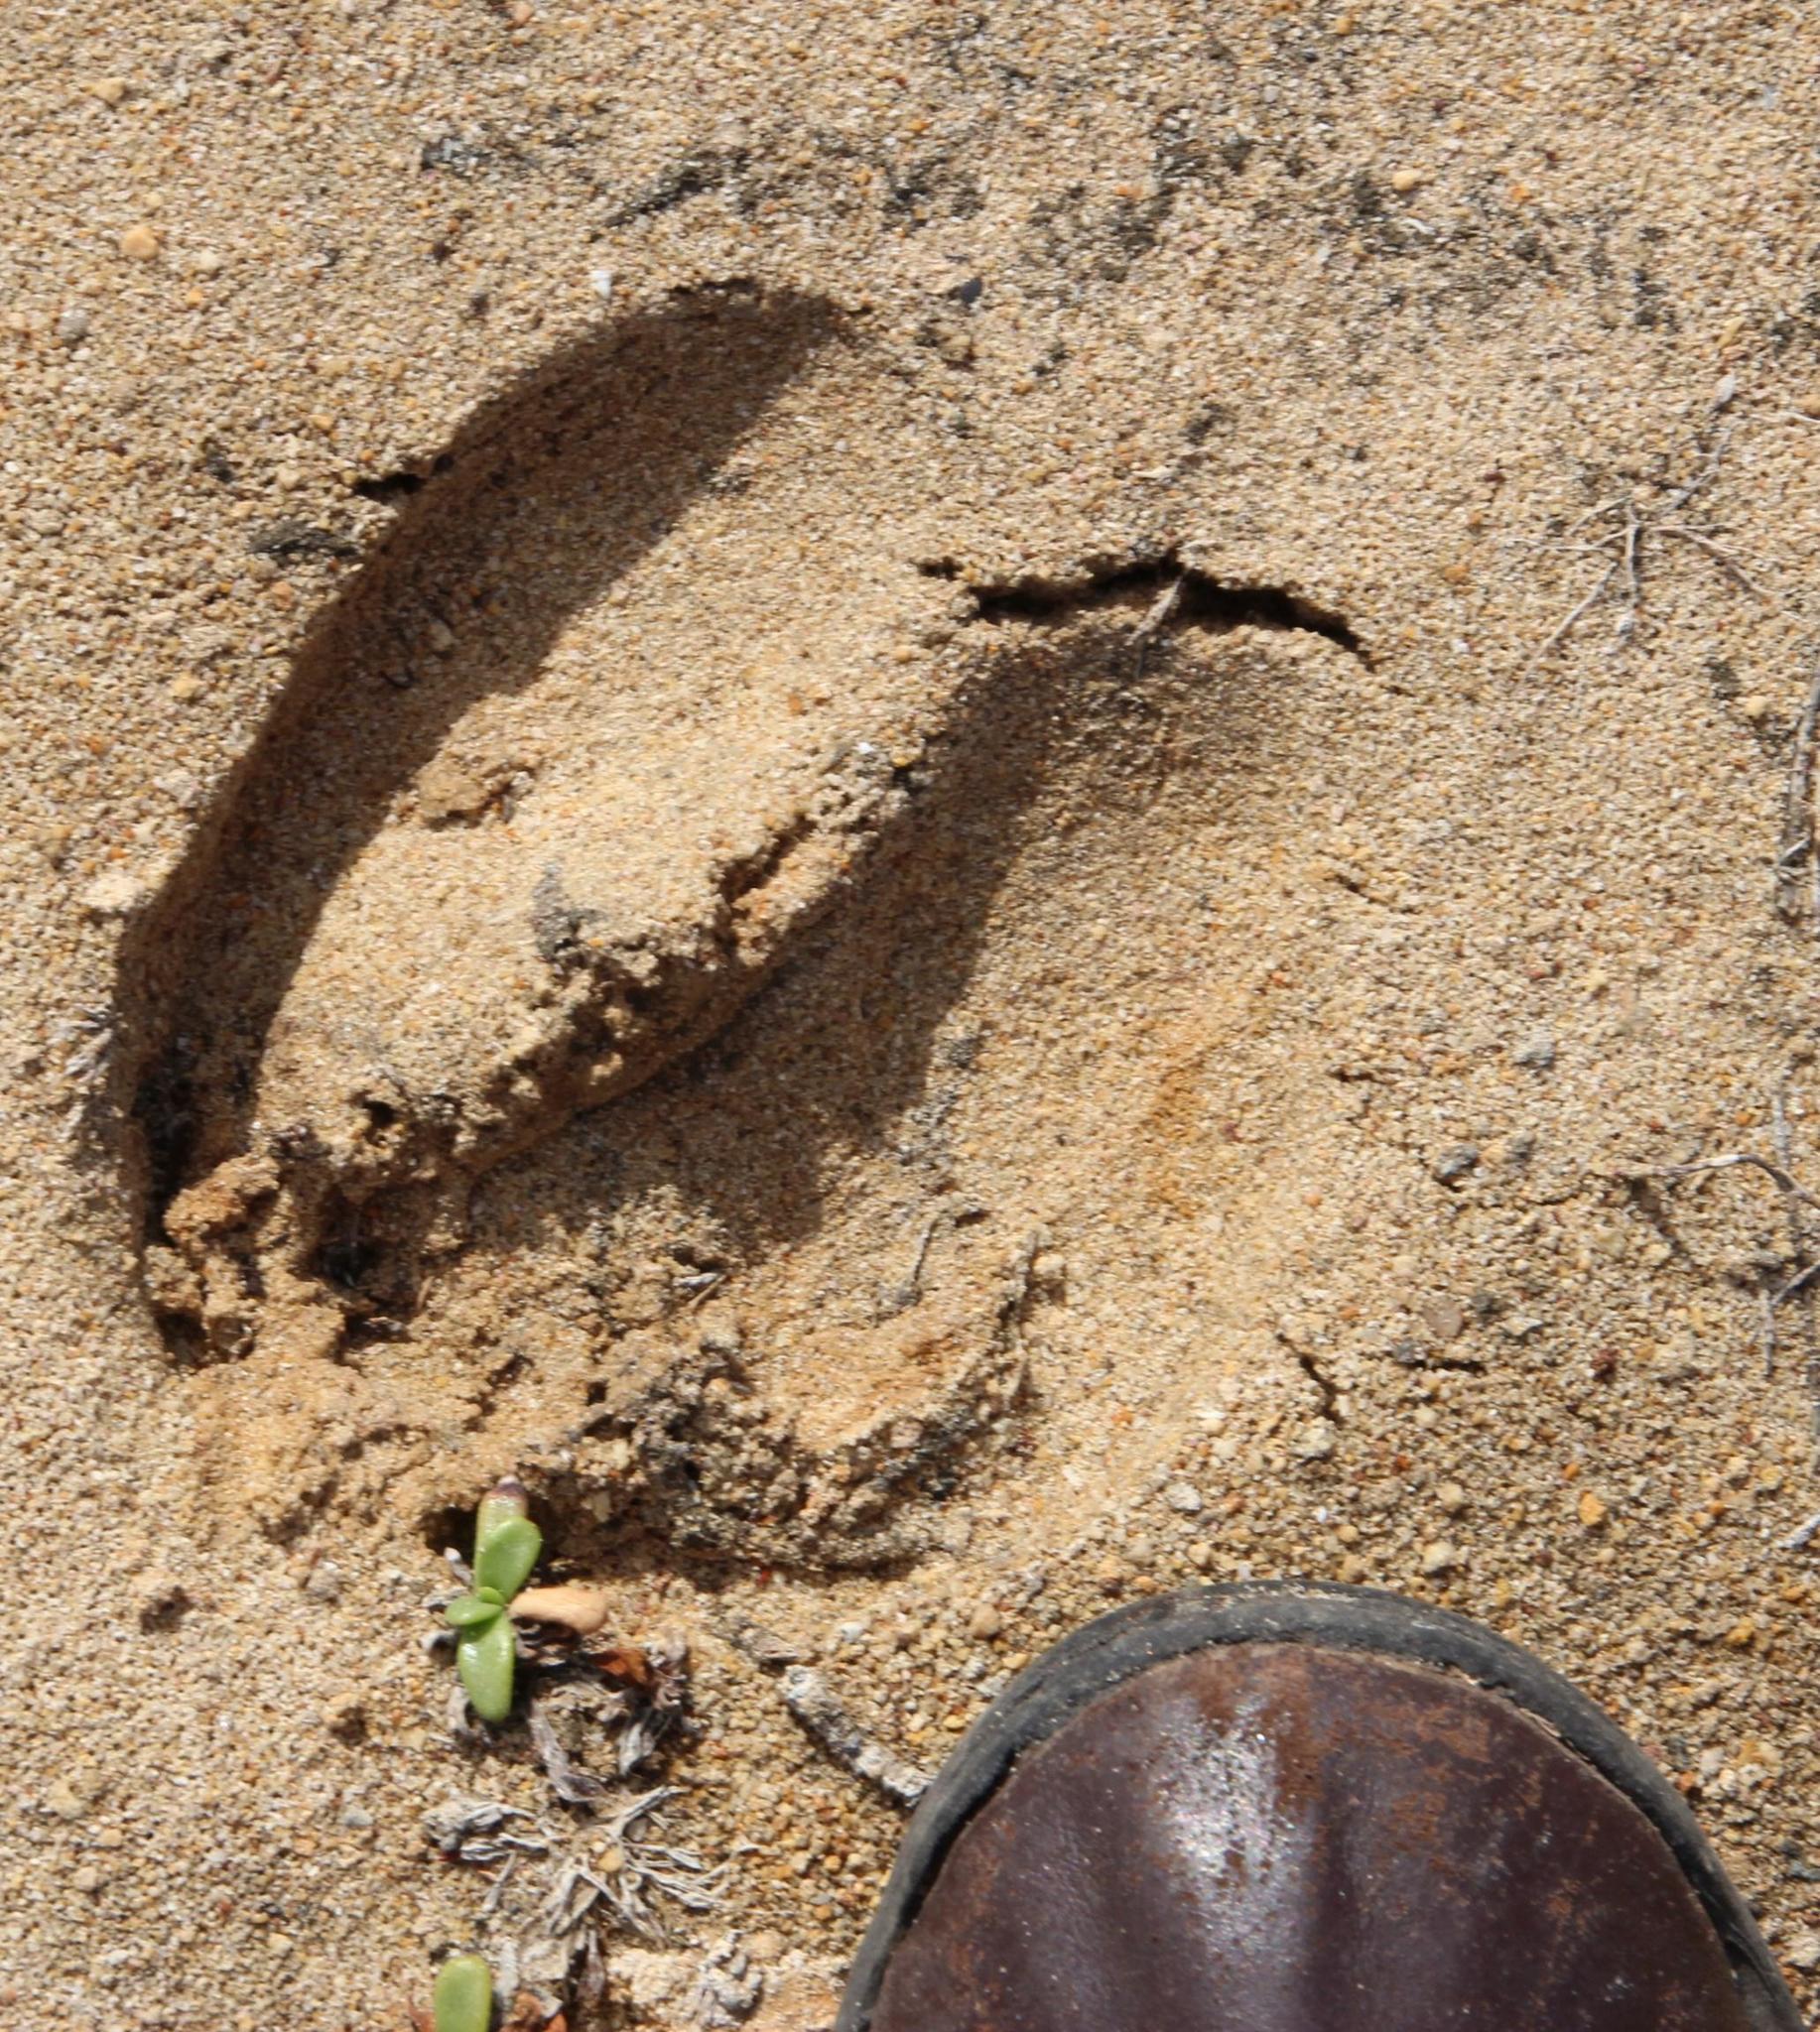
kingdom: Animalia
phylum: Chordata
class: Mammalia
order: Artiodactyla
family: Bovidae
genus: Taurotragus
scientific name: Taurotragus oryx
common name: Common eland
